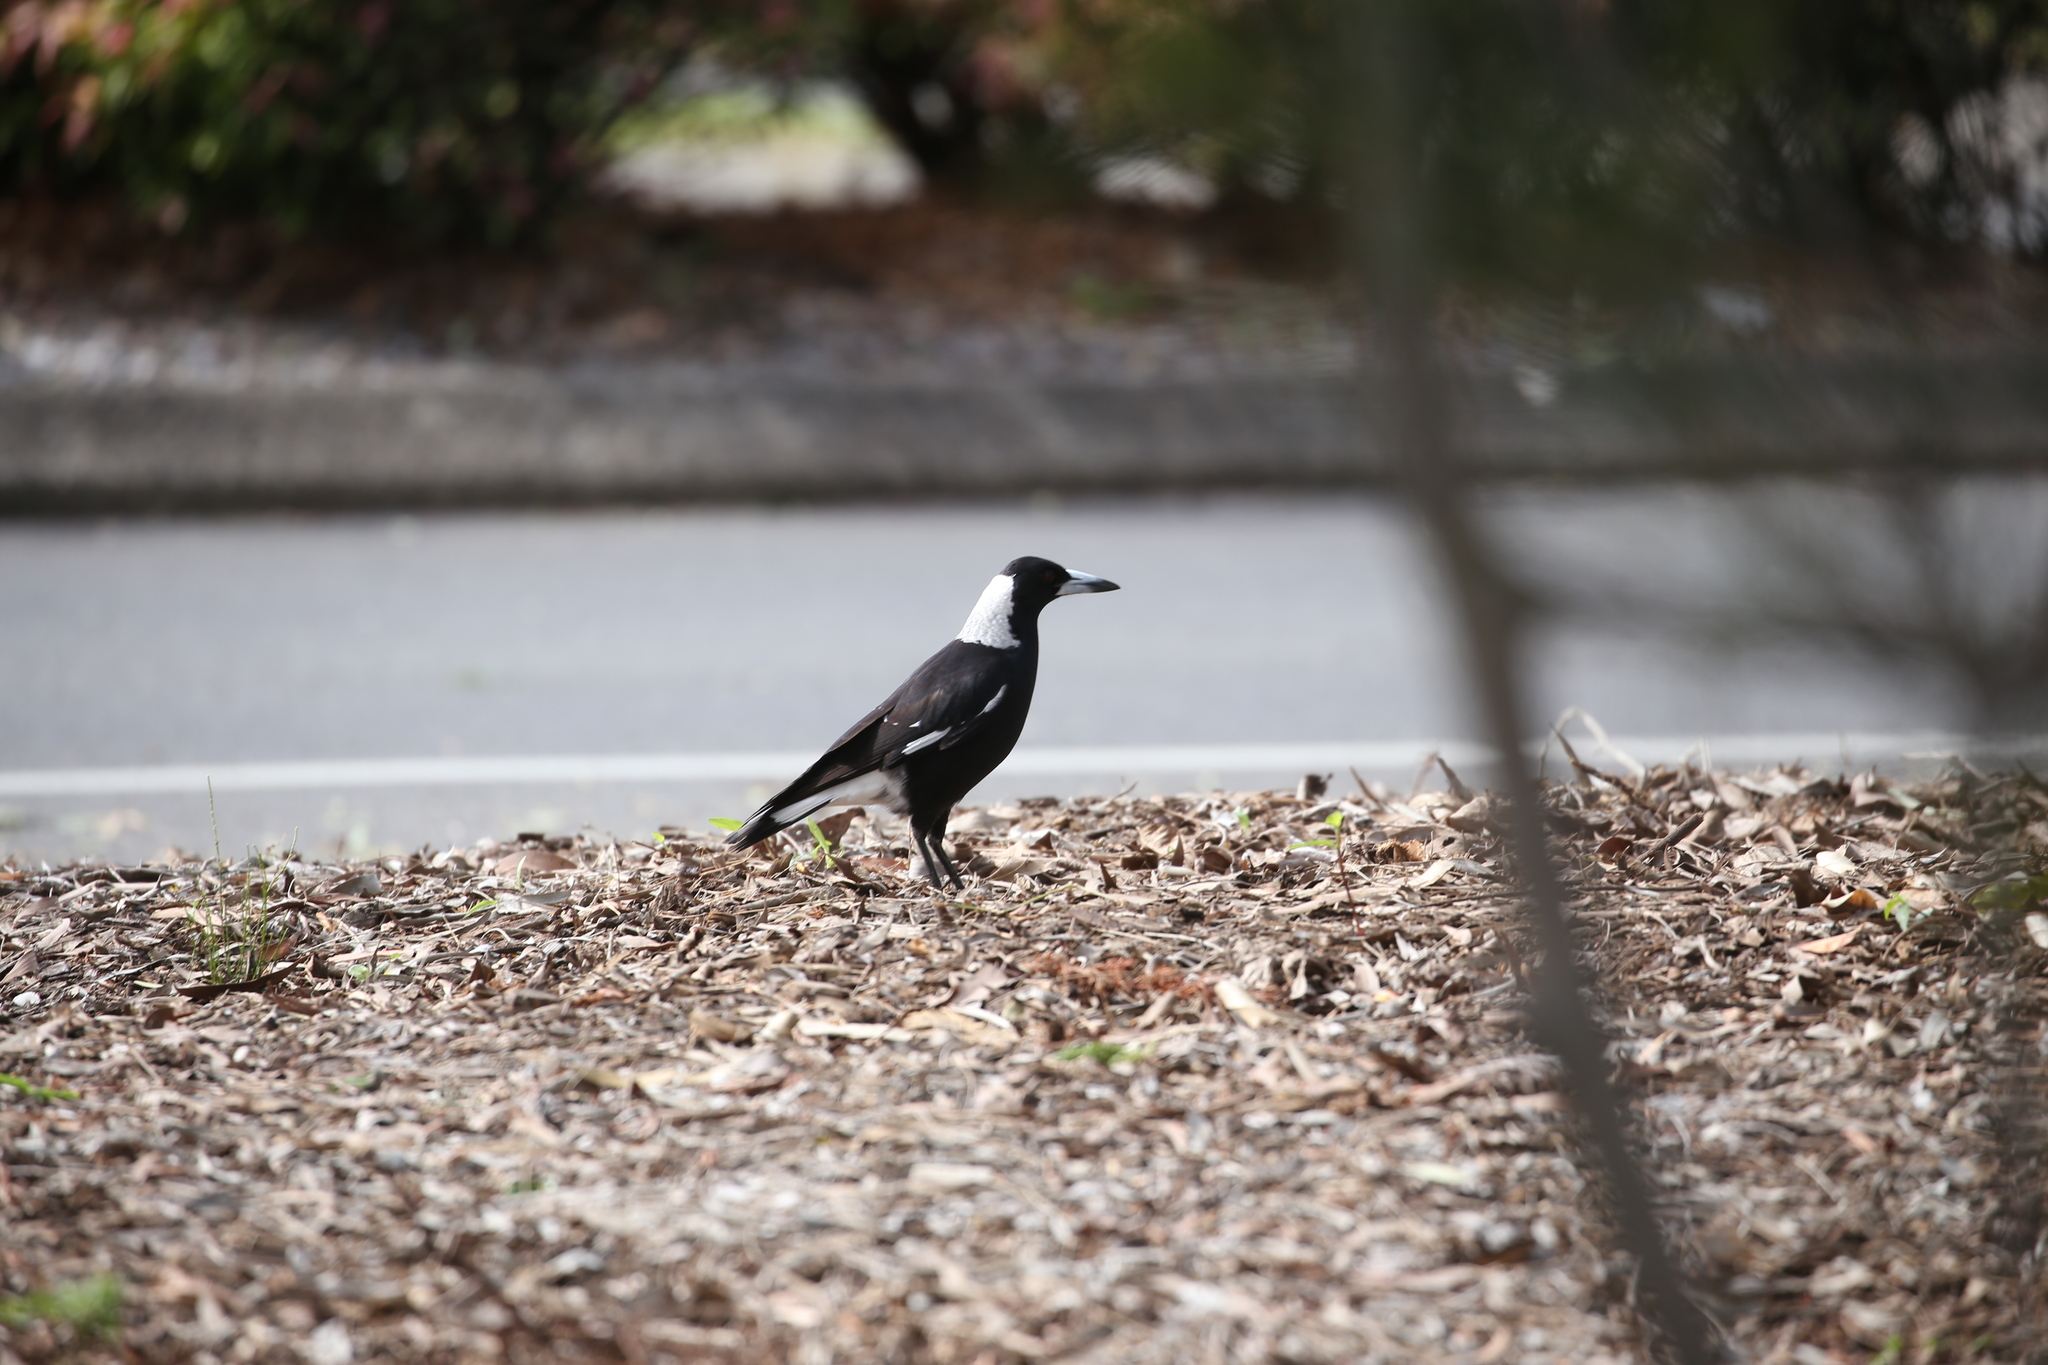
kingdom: Animalia
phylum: Chordata
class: Aves
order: Passeriformes
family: Cracticidae
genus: Gymnorhina
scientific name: Gymnorhina tibicen
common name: Australian magpie
